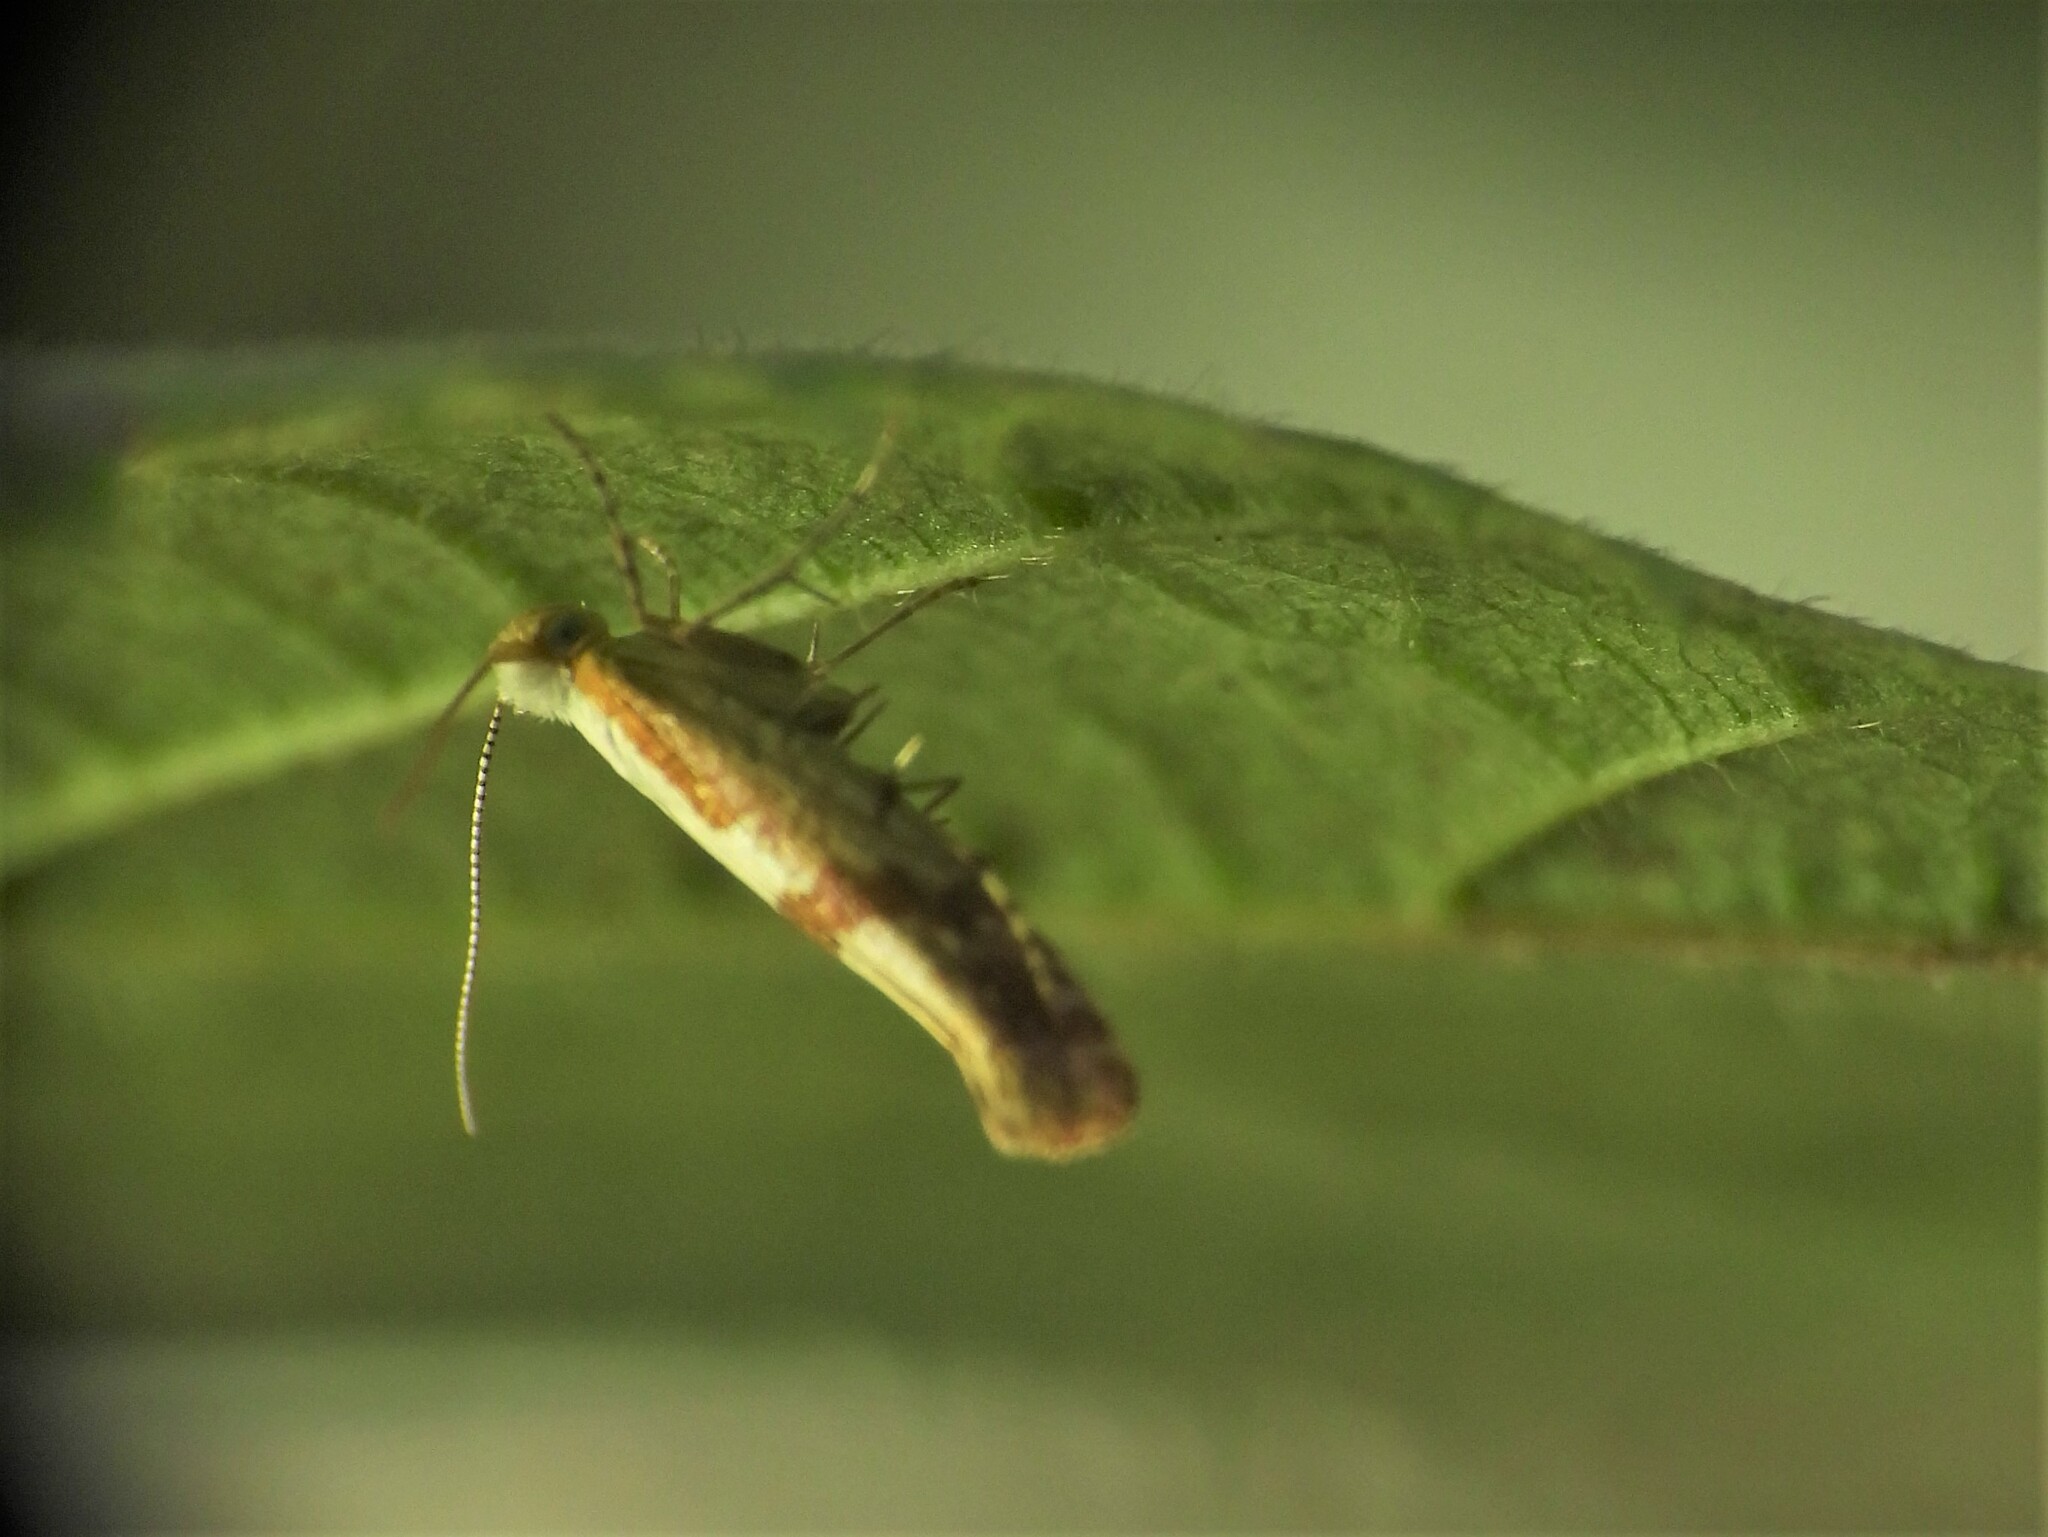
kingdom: Animalia
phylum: Arthropoda
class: Insecta
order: Lepidoptera
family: Argyresthiidae
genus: Argyresthia
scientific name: Argyresthia pruniella
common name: Cherry fruit moth
